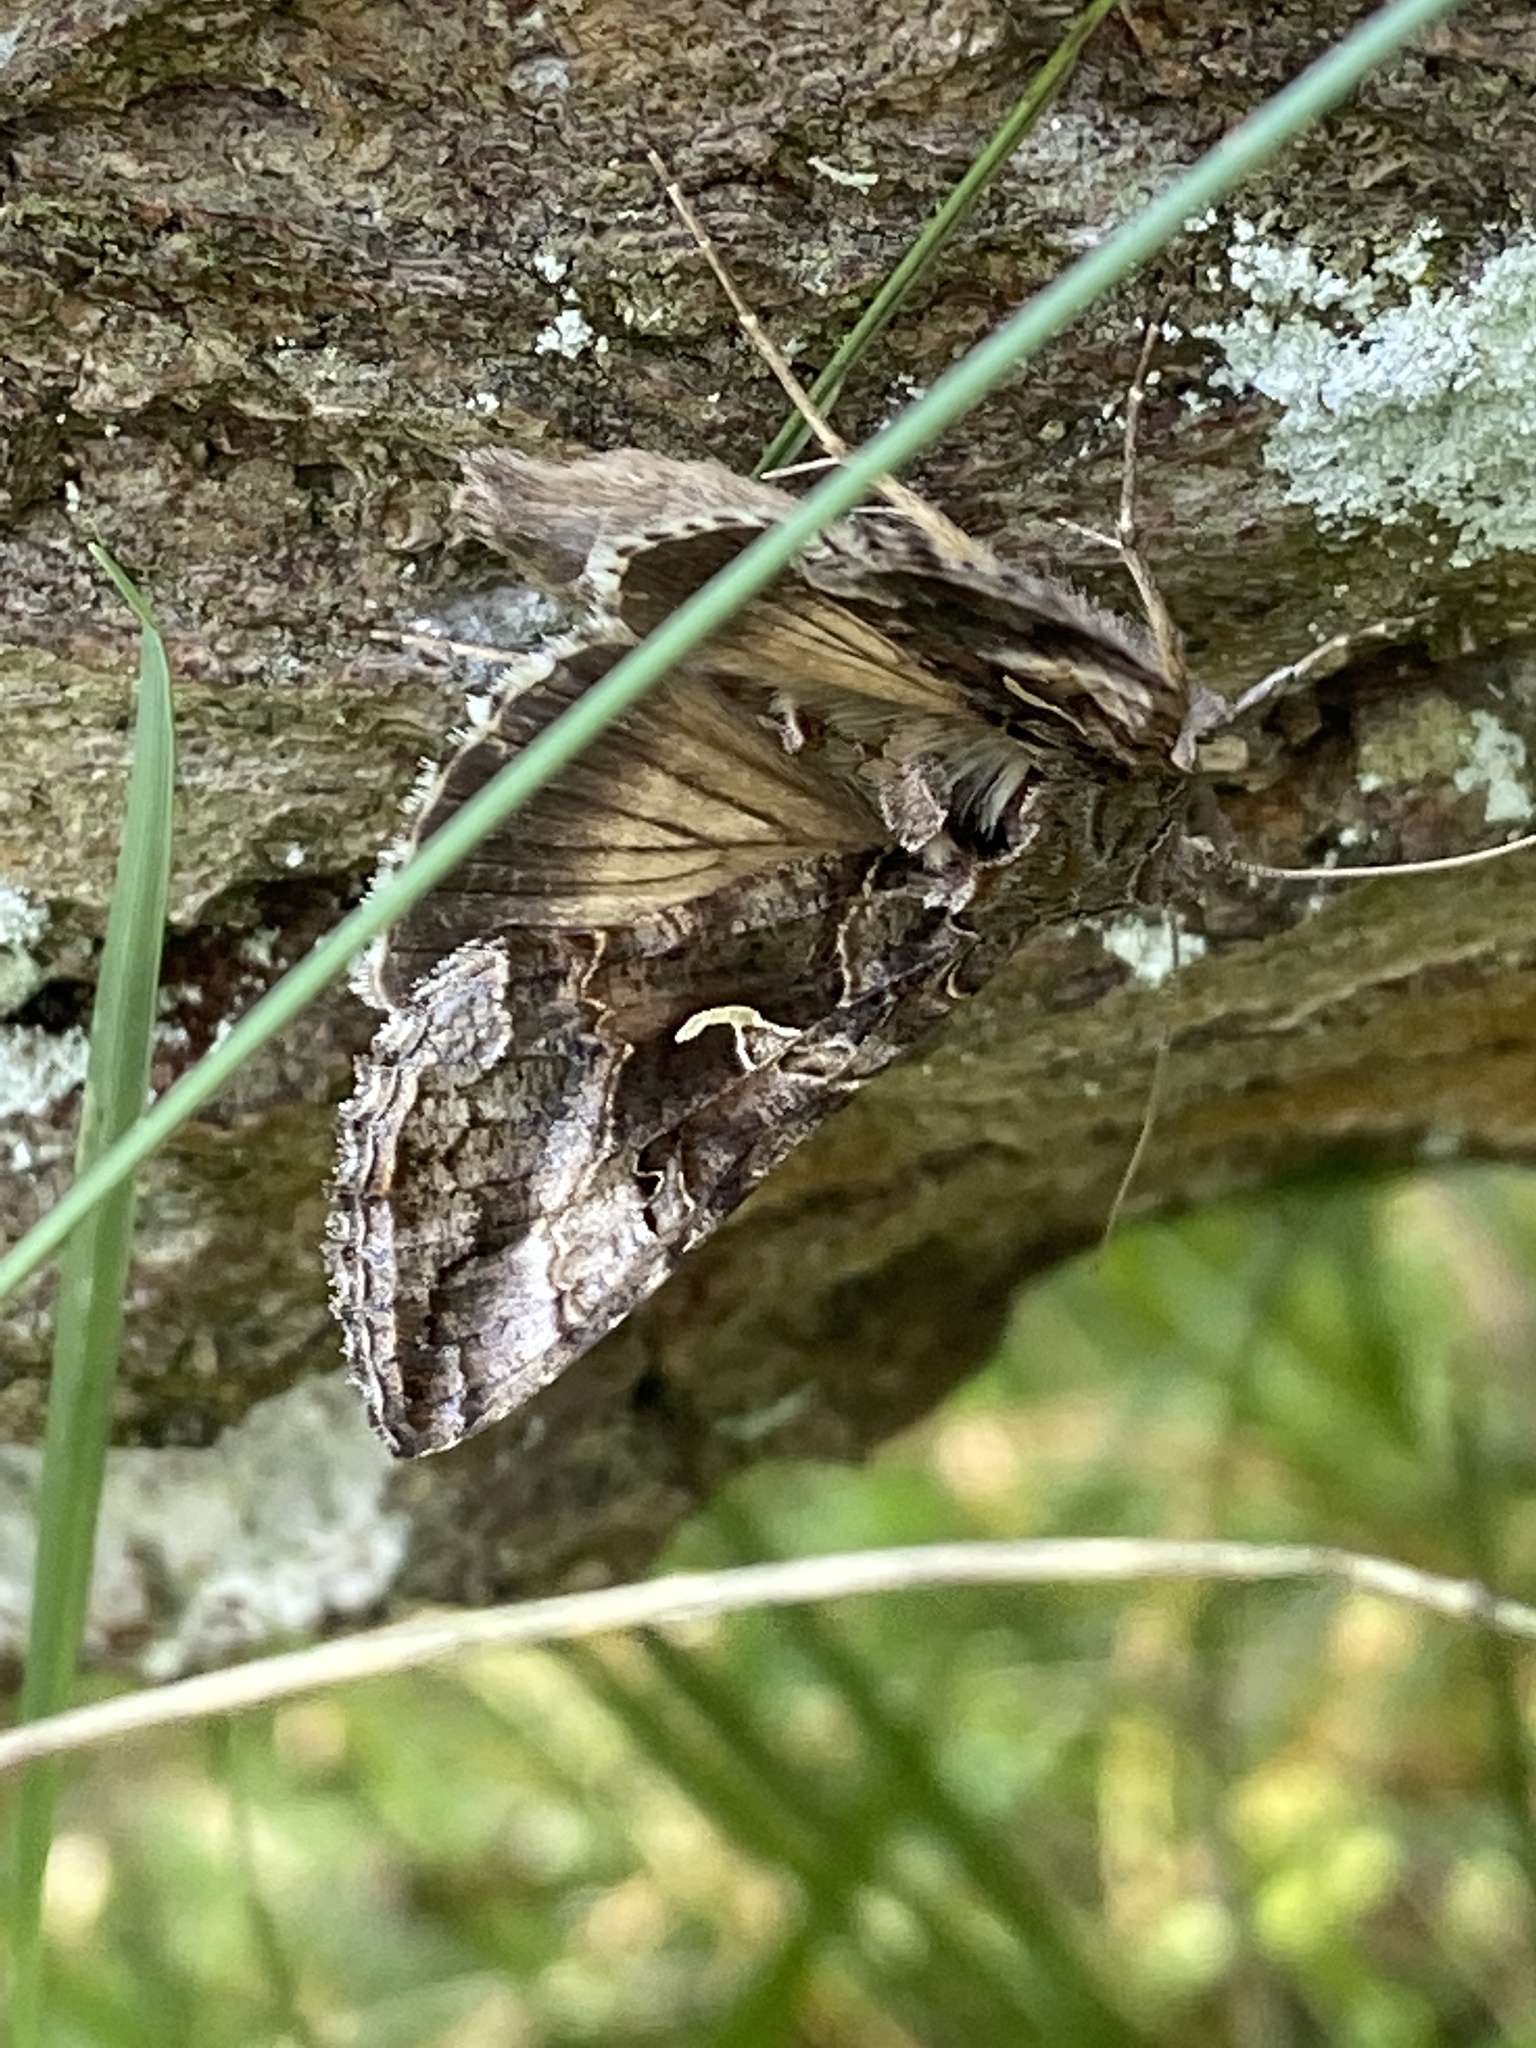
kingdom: Animalia
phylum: Arthropoda
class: Insecta
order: Lepidoptera
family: Noctuidae
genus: Autographa
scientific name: Autographa gamma
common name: Silver y
